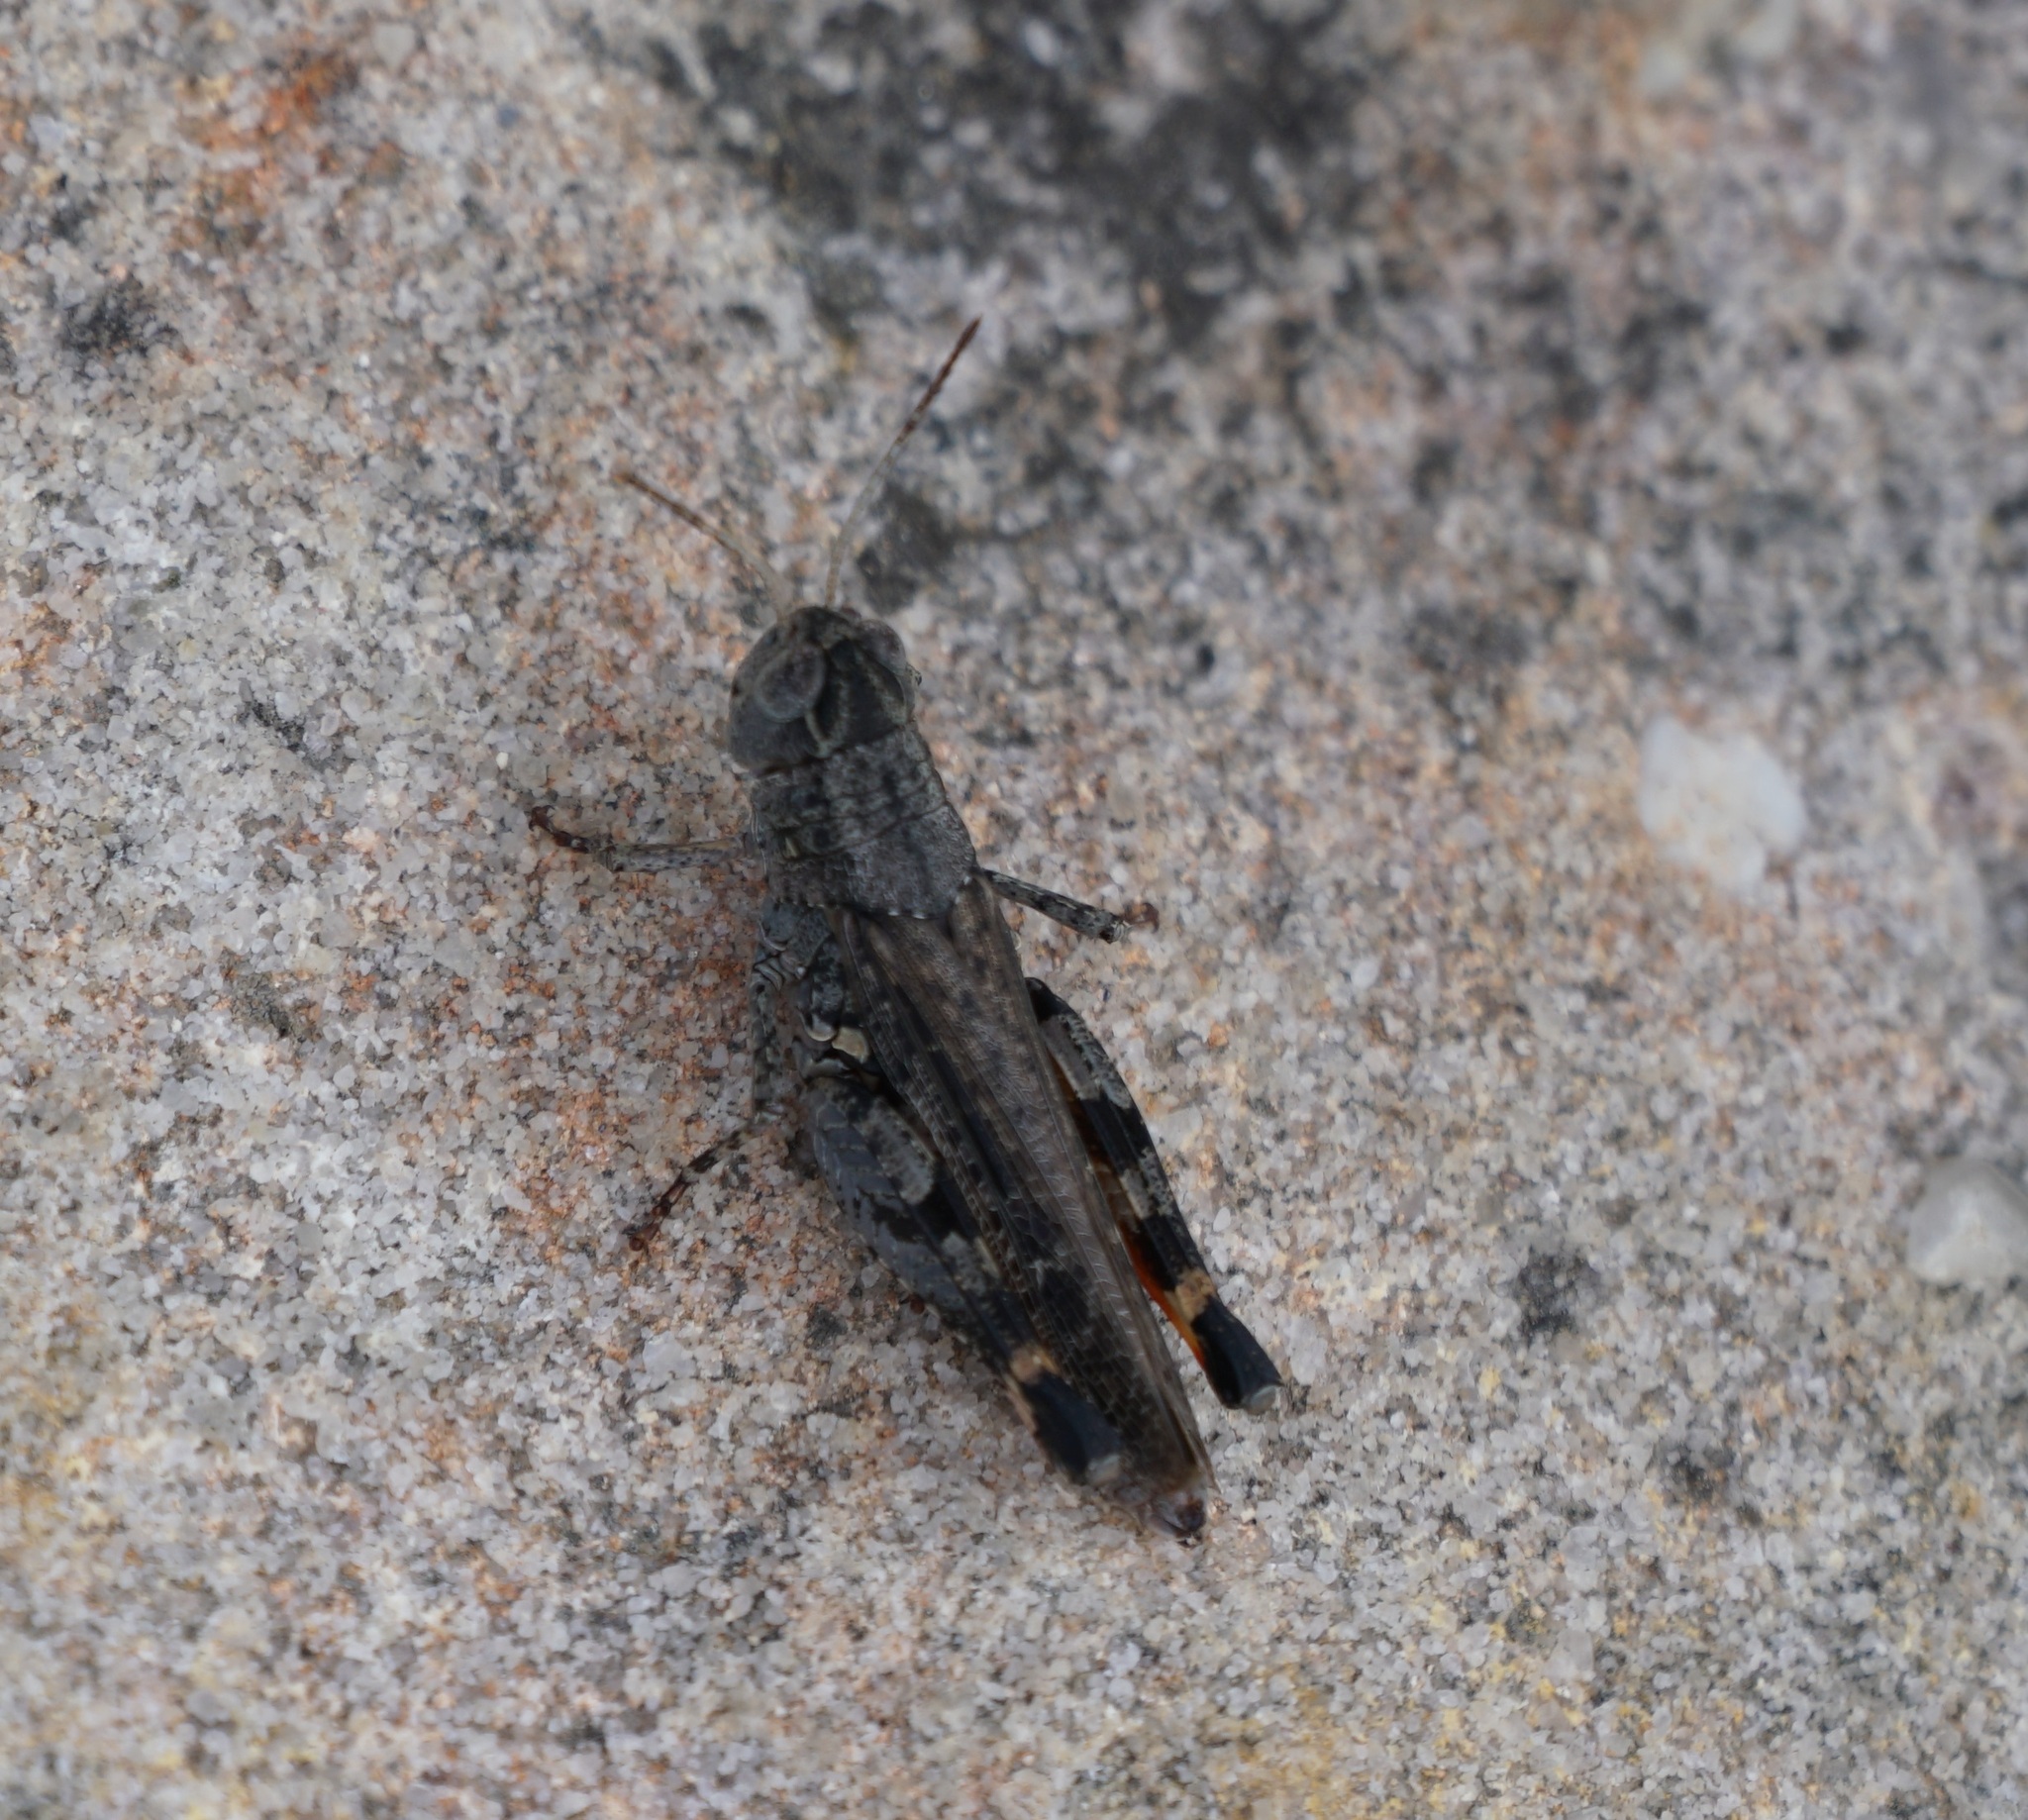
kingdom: Animalia
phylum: Arthropoda
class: Insecta
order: Orthoptera
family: Acrididae
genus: Peakesia
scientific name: Peakesia hospita
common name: Common peakesia
